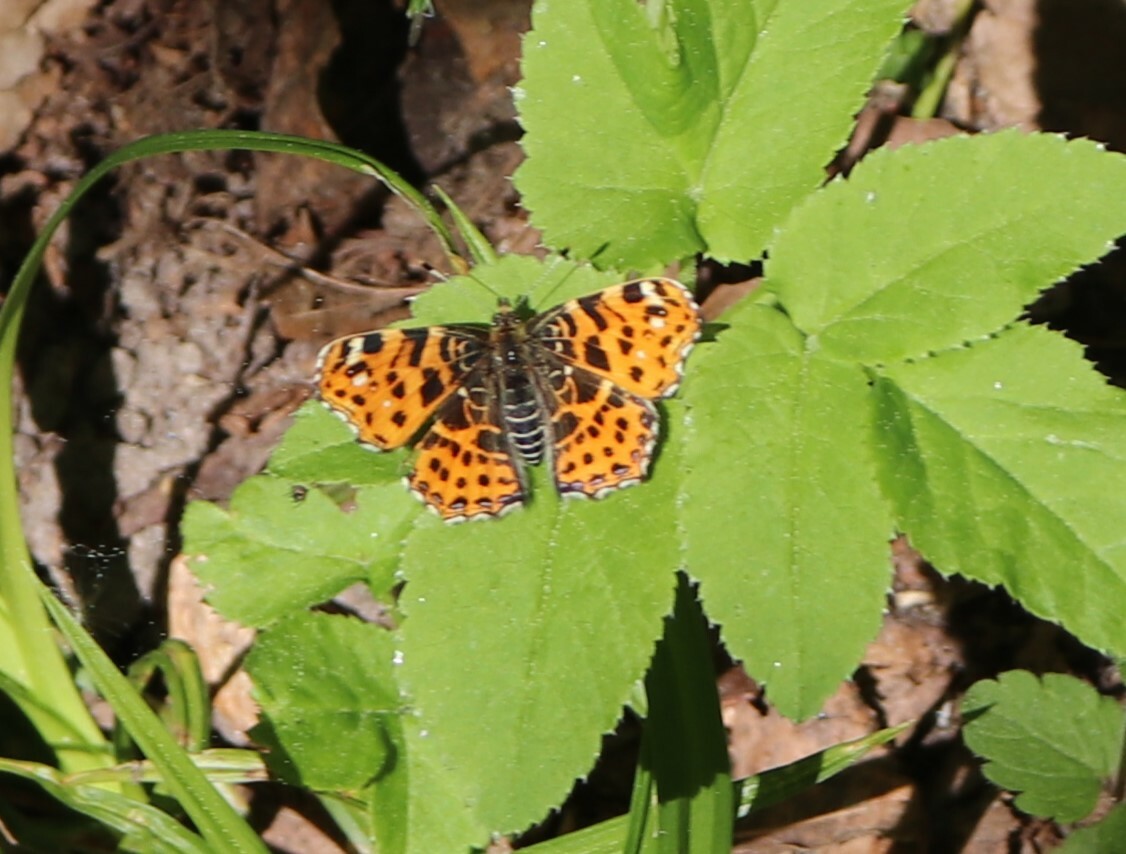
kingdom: Animalia
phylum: Arthropoda
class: Insecta
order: Lepidoptera
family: Nymphalidae
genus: Araschnia
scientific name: Araschnia levana
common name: Map butterfly
